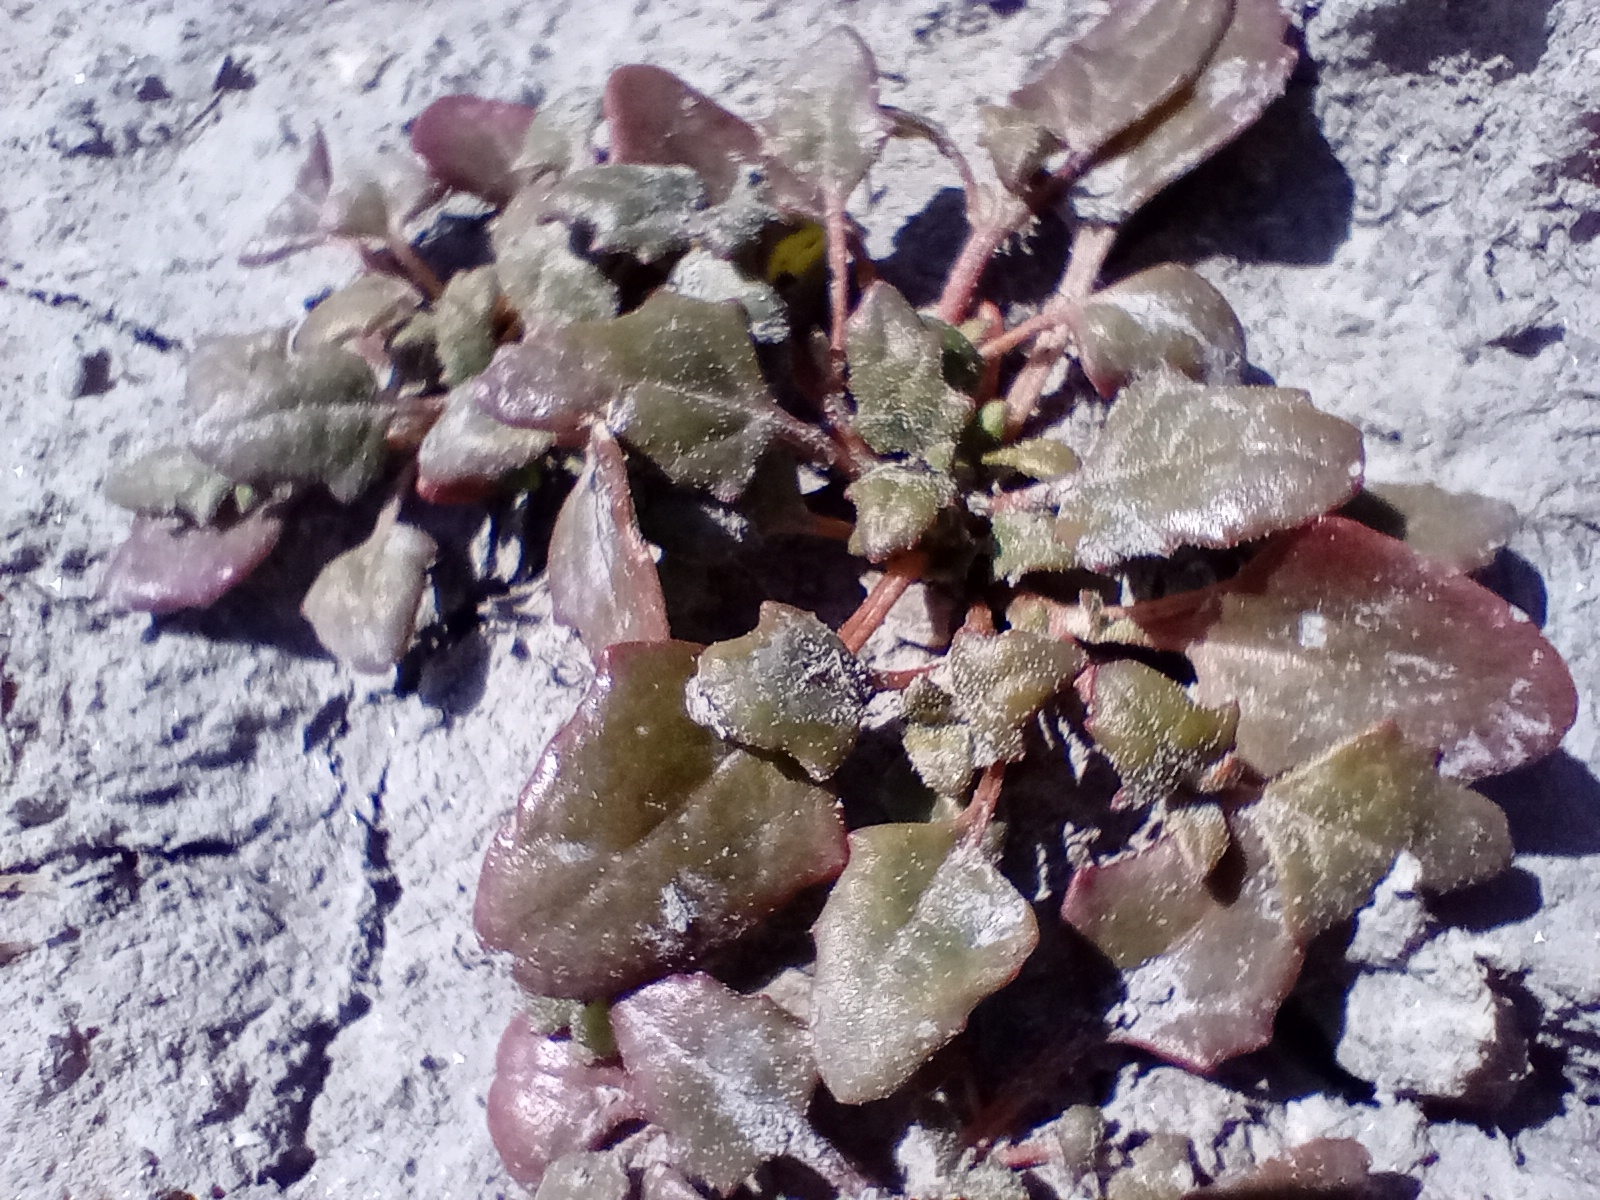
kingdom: Plantae
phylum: Tracheophyta
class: Magnoliopsida
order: Caryophyllales
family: Amaranthaceae
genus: Oxybasis
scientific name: Oxybasis ambigua
